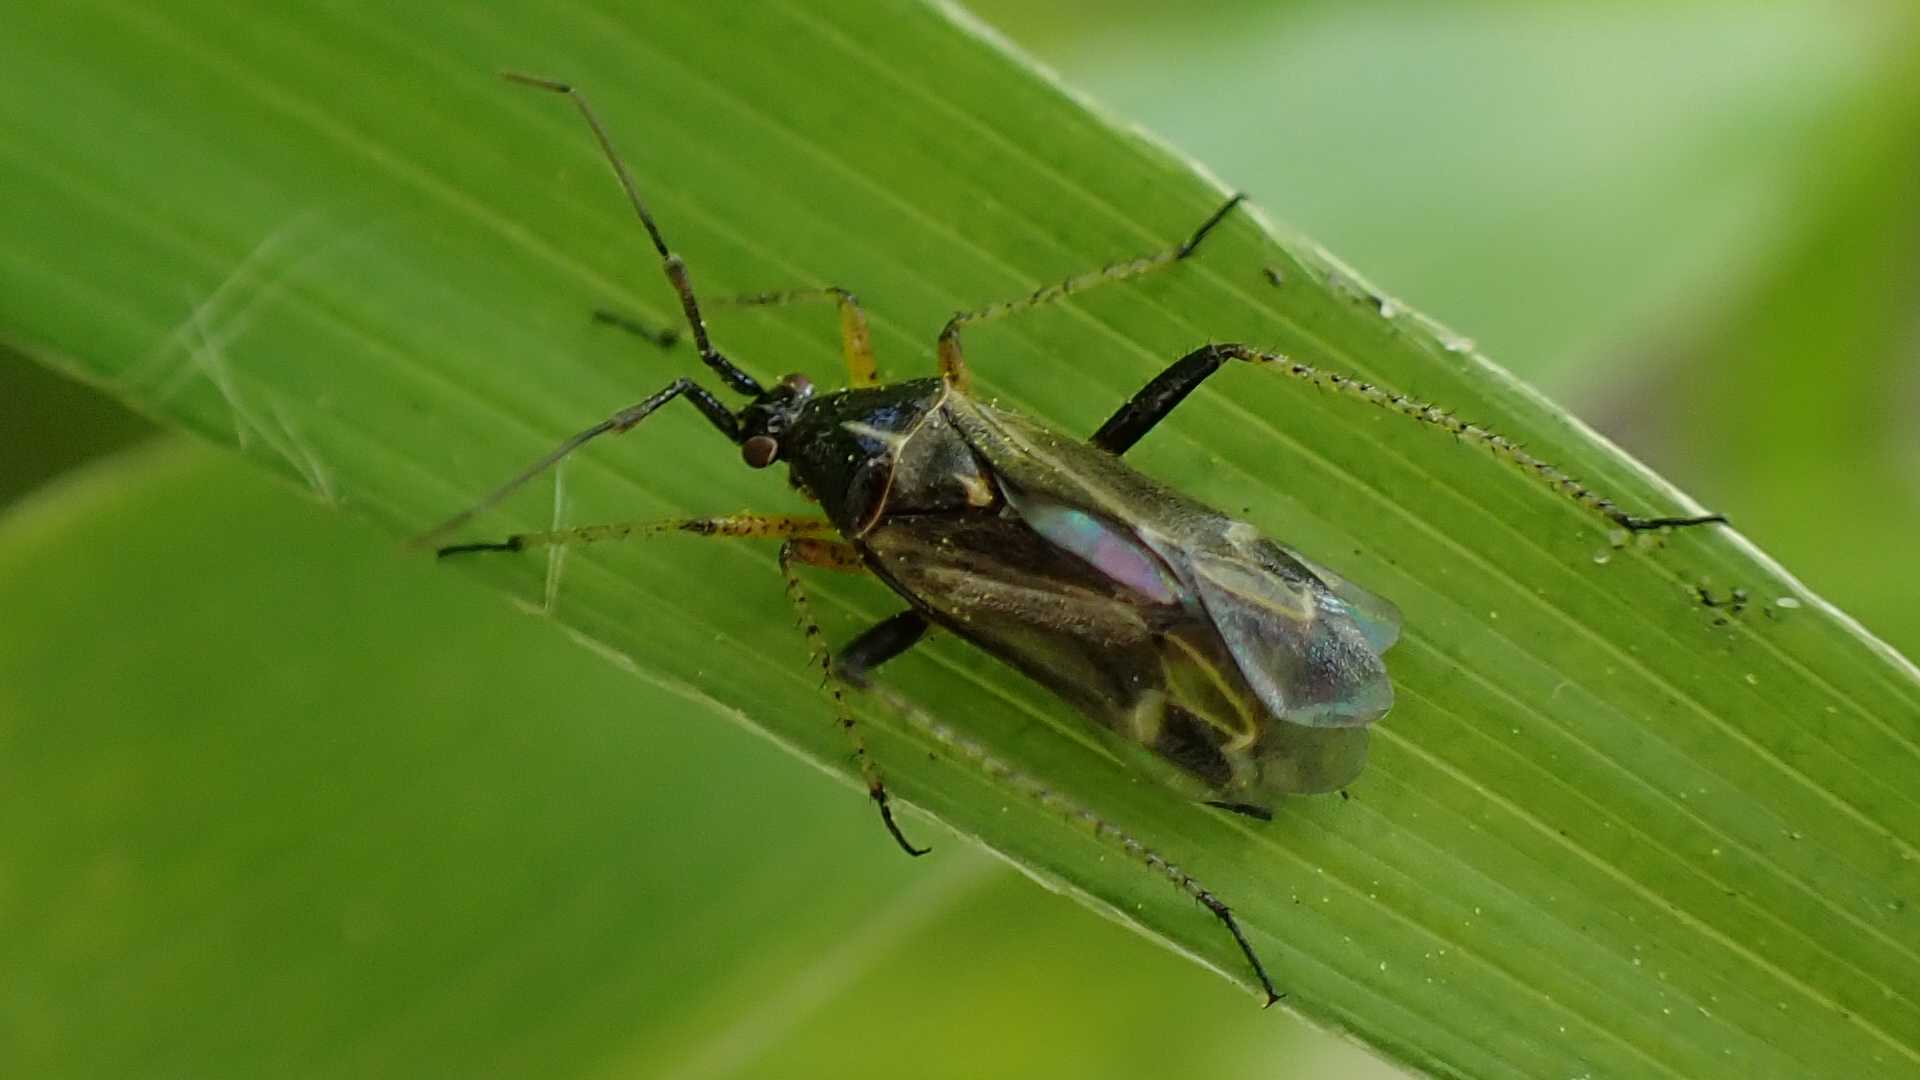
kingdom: Animalia
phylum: Arthropoda
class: Insecta
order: Hemiptera
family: Miridae
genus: Harpocera
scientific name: Harpocera thoracica
